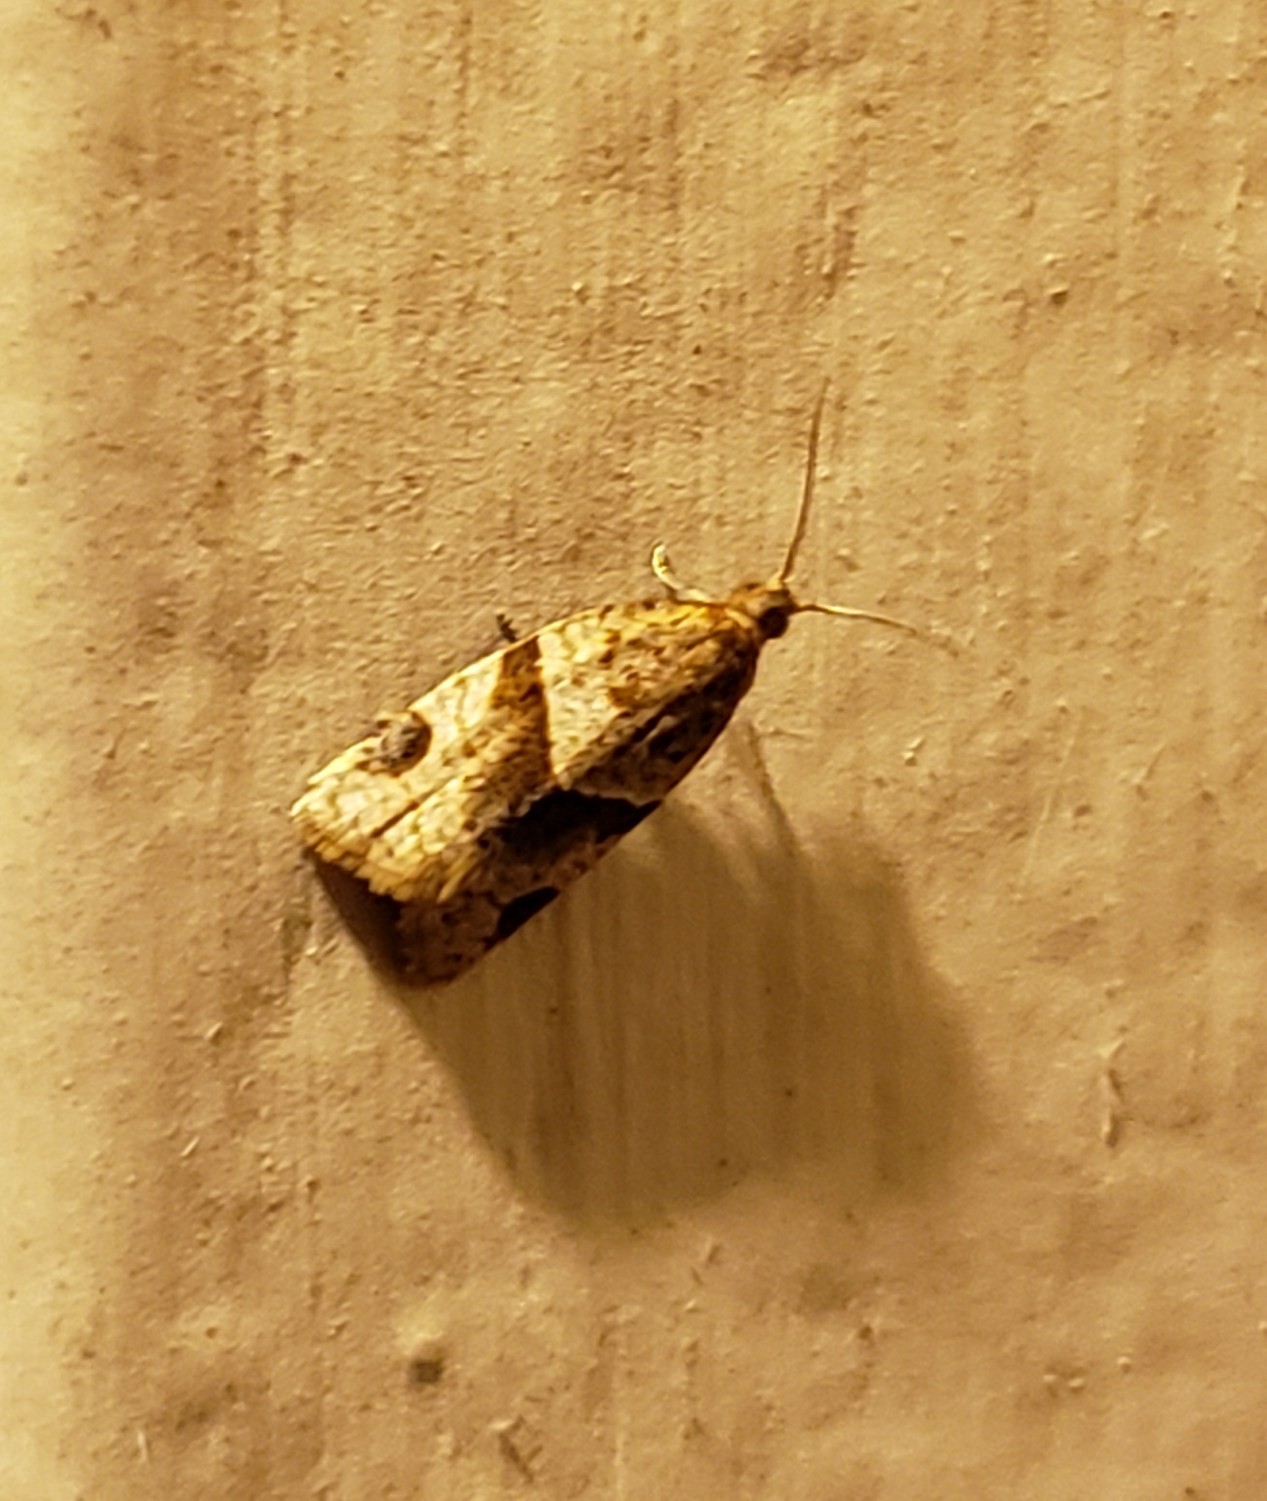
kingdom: Animalia
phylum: Arthropoda
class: Insecta
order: Lepidoptera
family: Tortricidae
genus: Clepsis
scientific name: Clepsis peritana
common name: Garden tortrix
